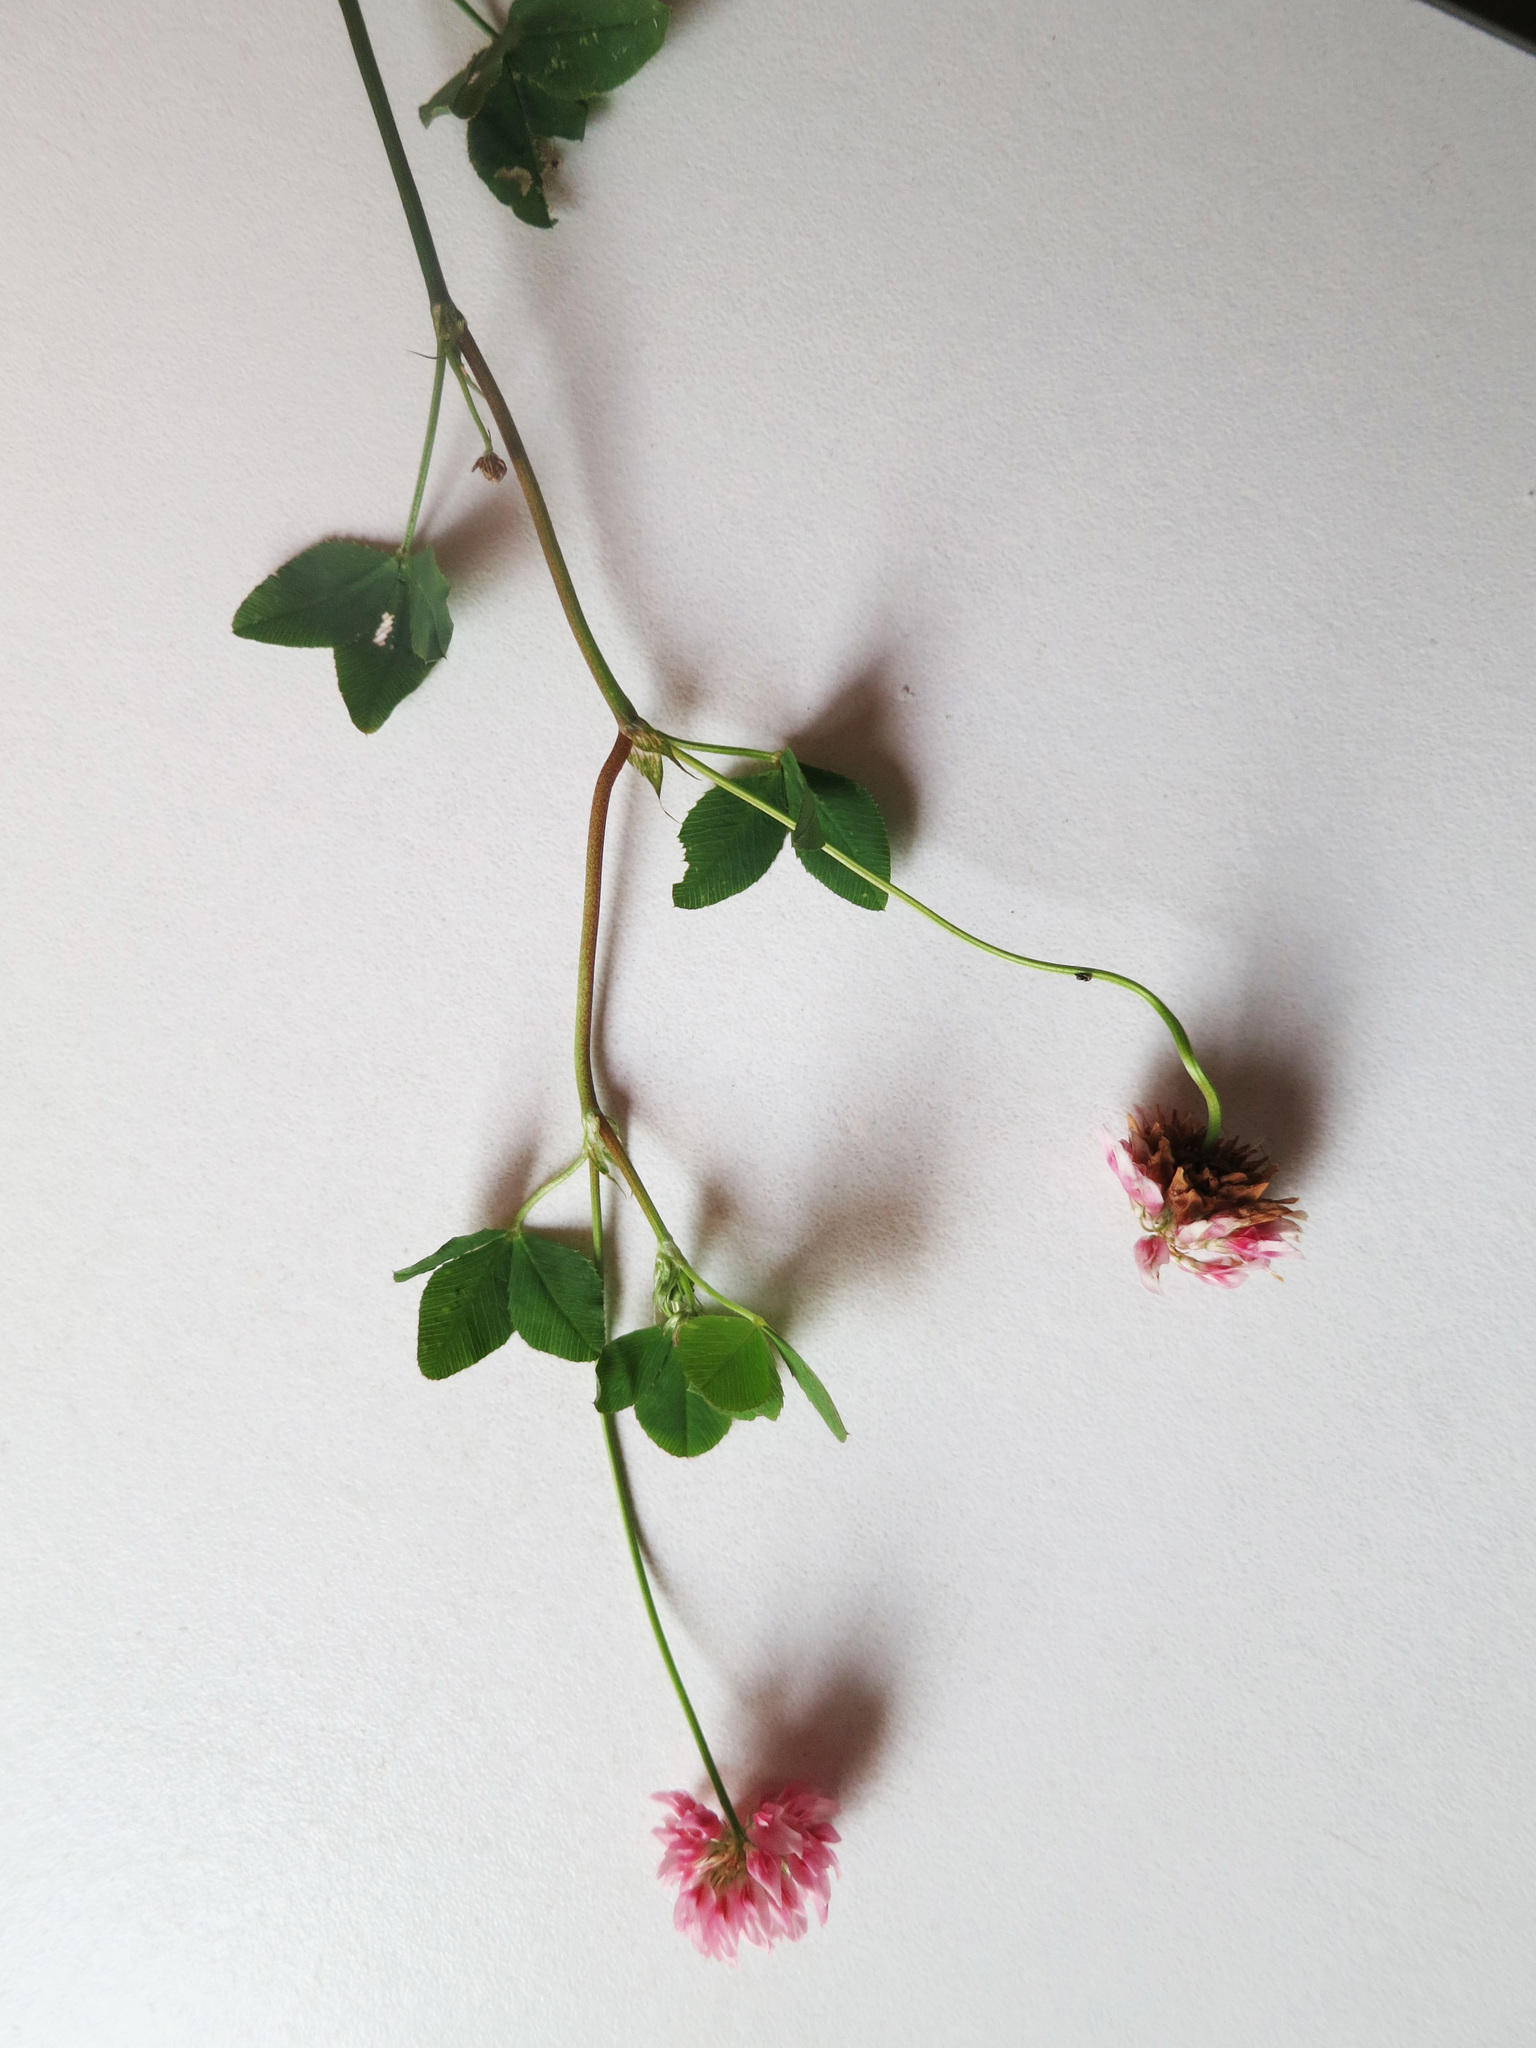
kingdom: Plantae
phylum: Tracheophyta
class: Magnoliopsida
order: Fabales
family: Fabaceae
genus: Trifolium
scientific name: Trifolium hybridum
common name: Alsike clover
